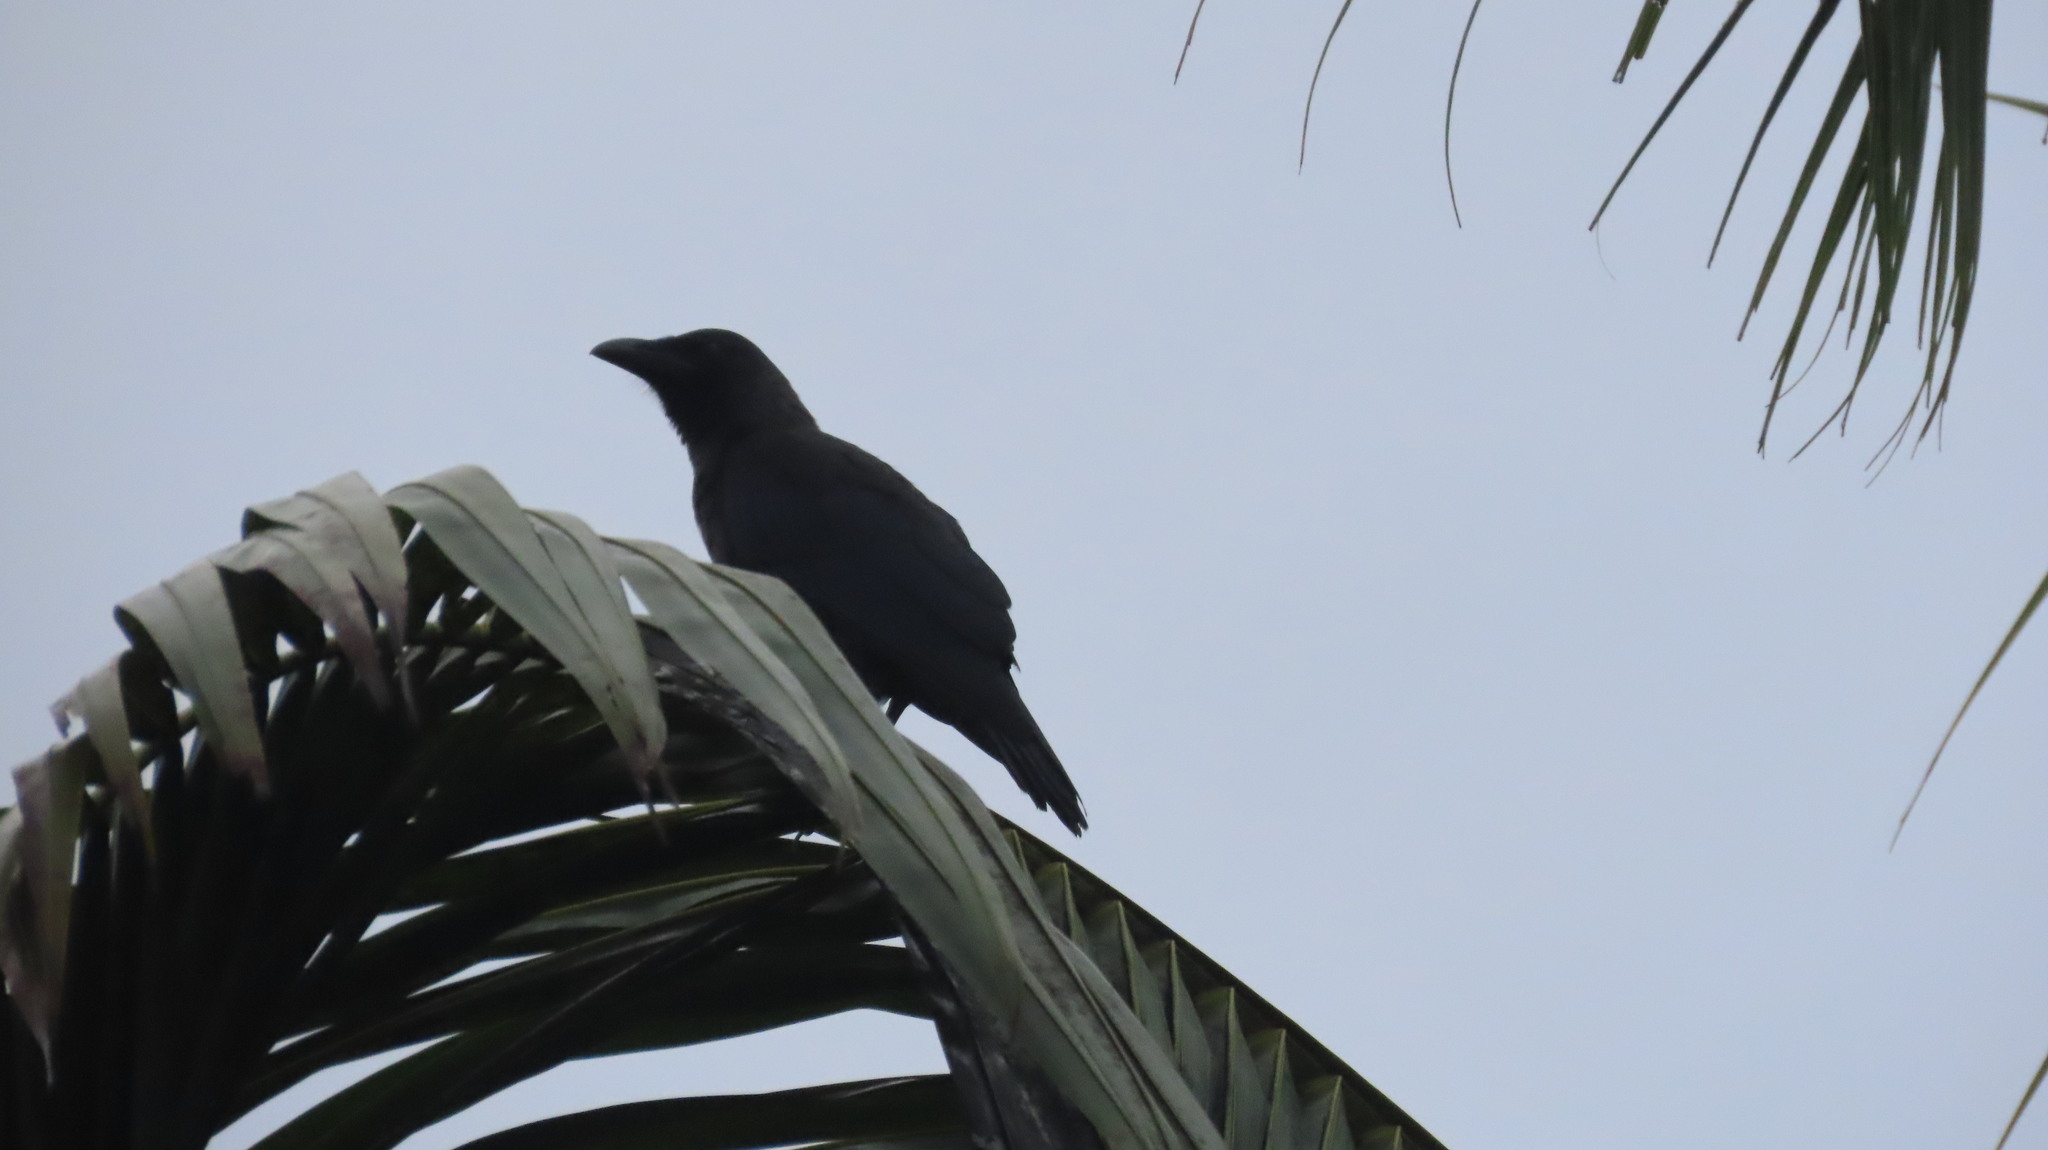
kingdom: Animalia
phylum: Chordata
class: Aves
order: Passeriformes
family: Corvidae
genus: Corvus
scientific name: Corvus splendens
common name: House crow
